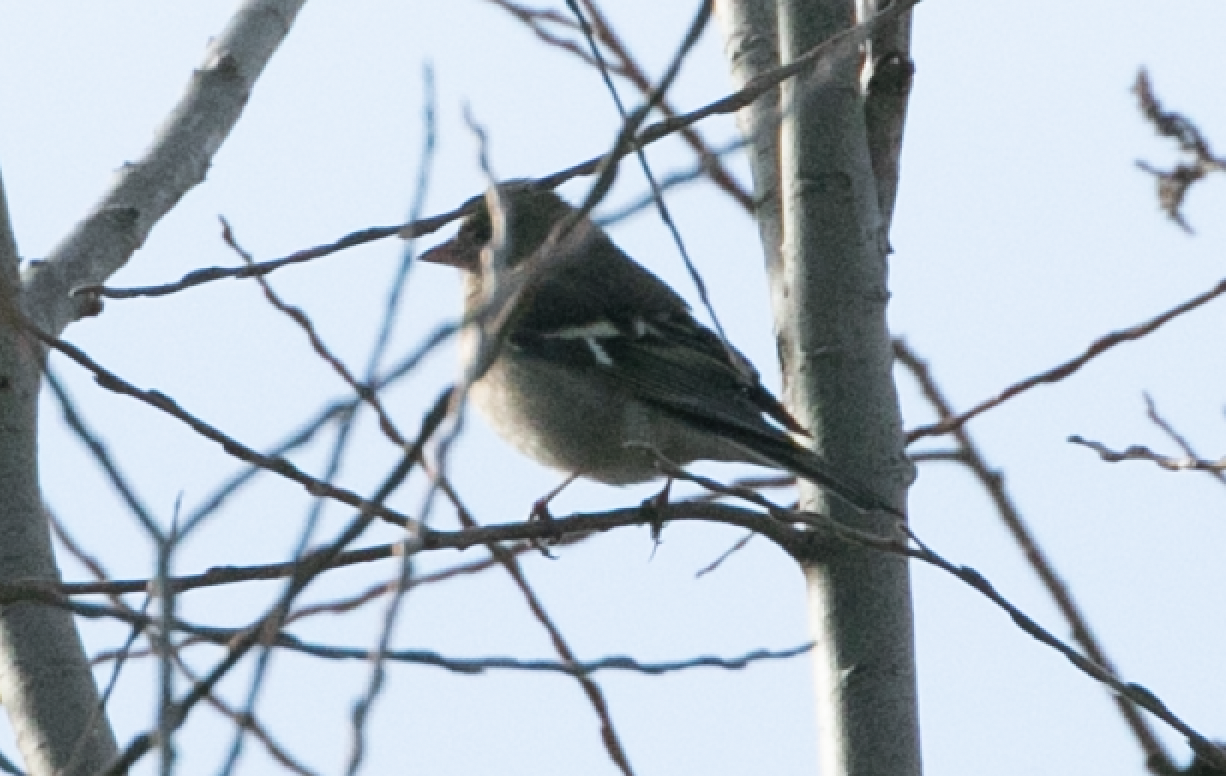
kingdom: Animalia
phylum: Chordata
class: Aves
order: Passeriformes
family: Fringillidae
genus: Fringilla
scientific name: Fringilla coelebs
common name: Common chaffinch
